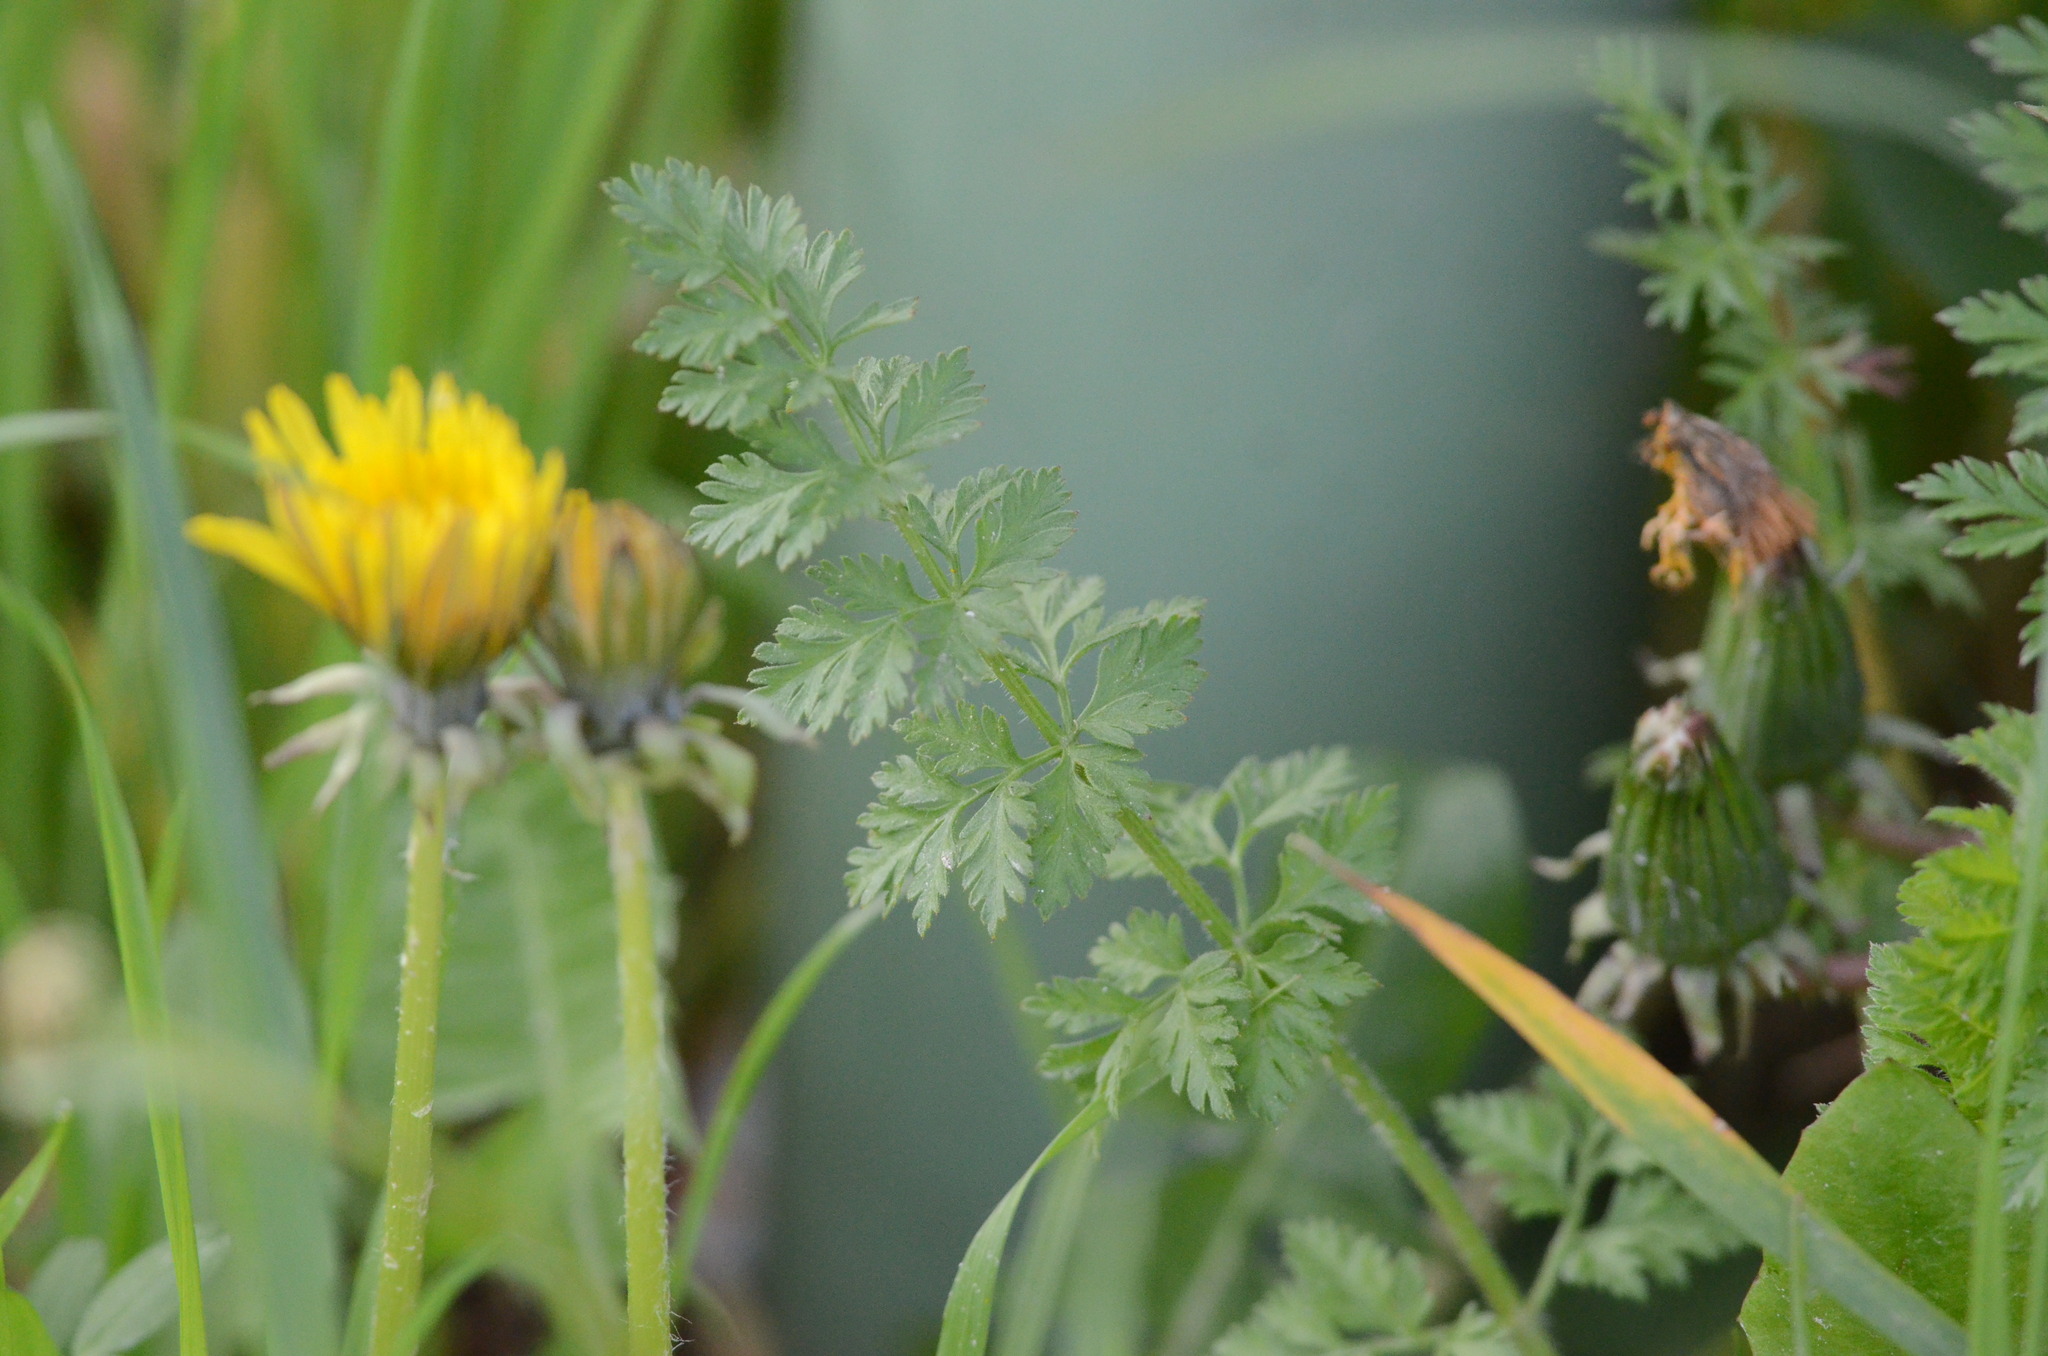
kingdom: Plantae
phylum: Tracheophyta
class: Magnoliopsida
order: Apiales
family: Apiaceae
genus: Daucus
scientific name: Daucus carota
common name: Wild carrot
